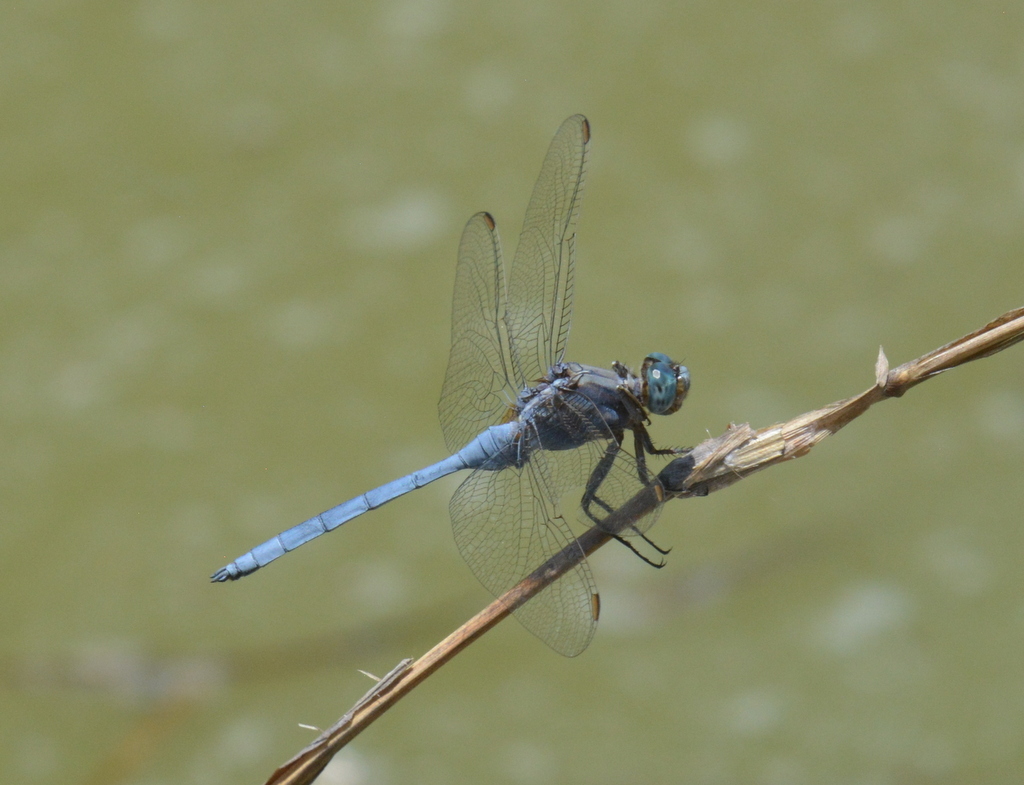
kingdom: Animalia
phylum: Arthropoda
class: Insecta
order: Odonata
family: Libellulidae
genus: Orthetrum
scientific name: Orthetrum chrysostigma
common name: Epaulet skimmer
